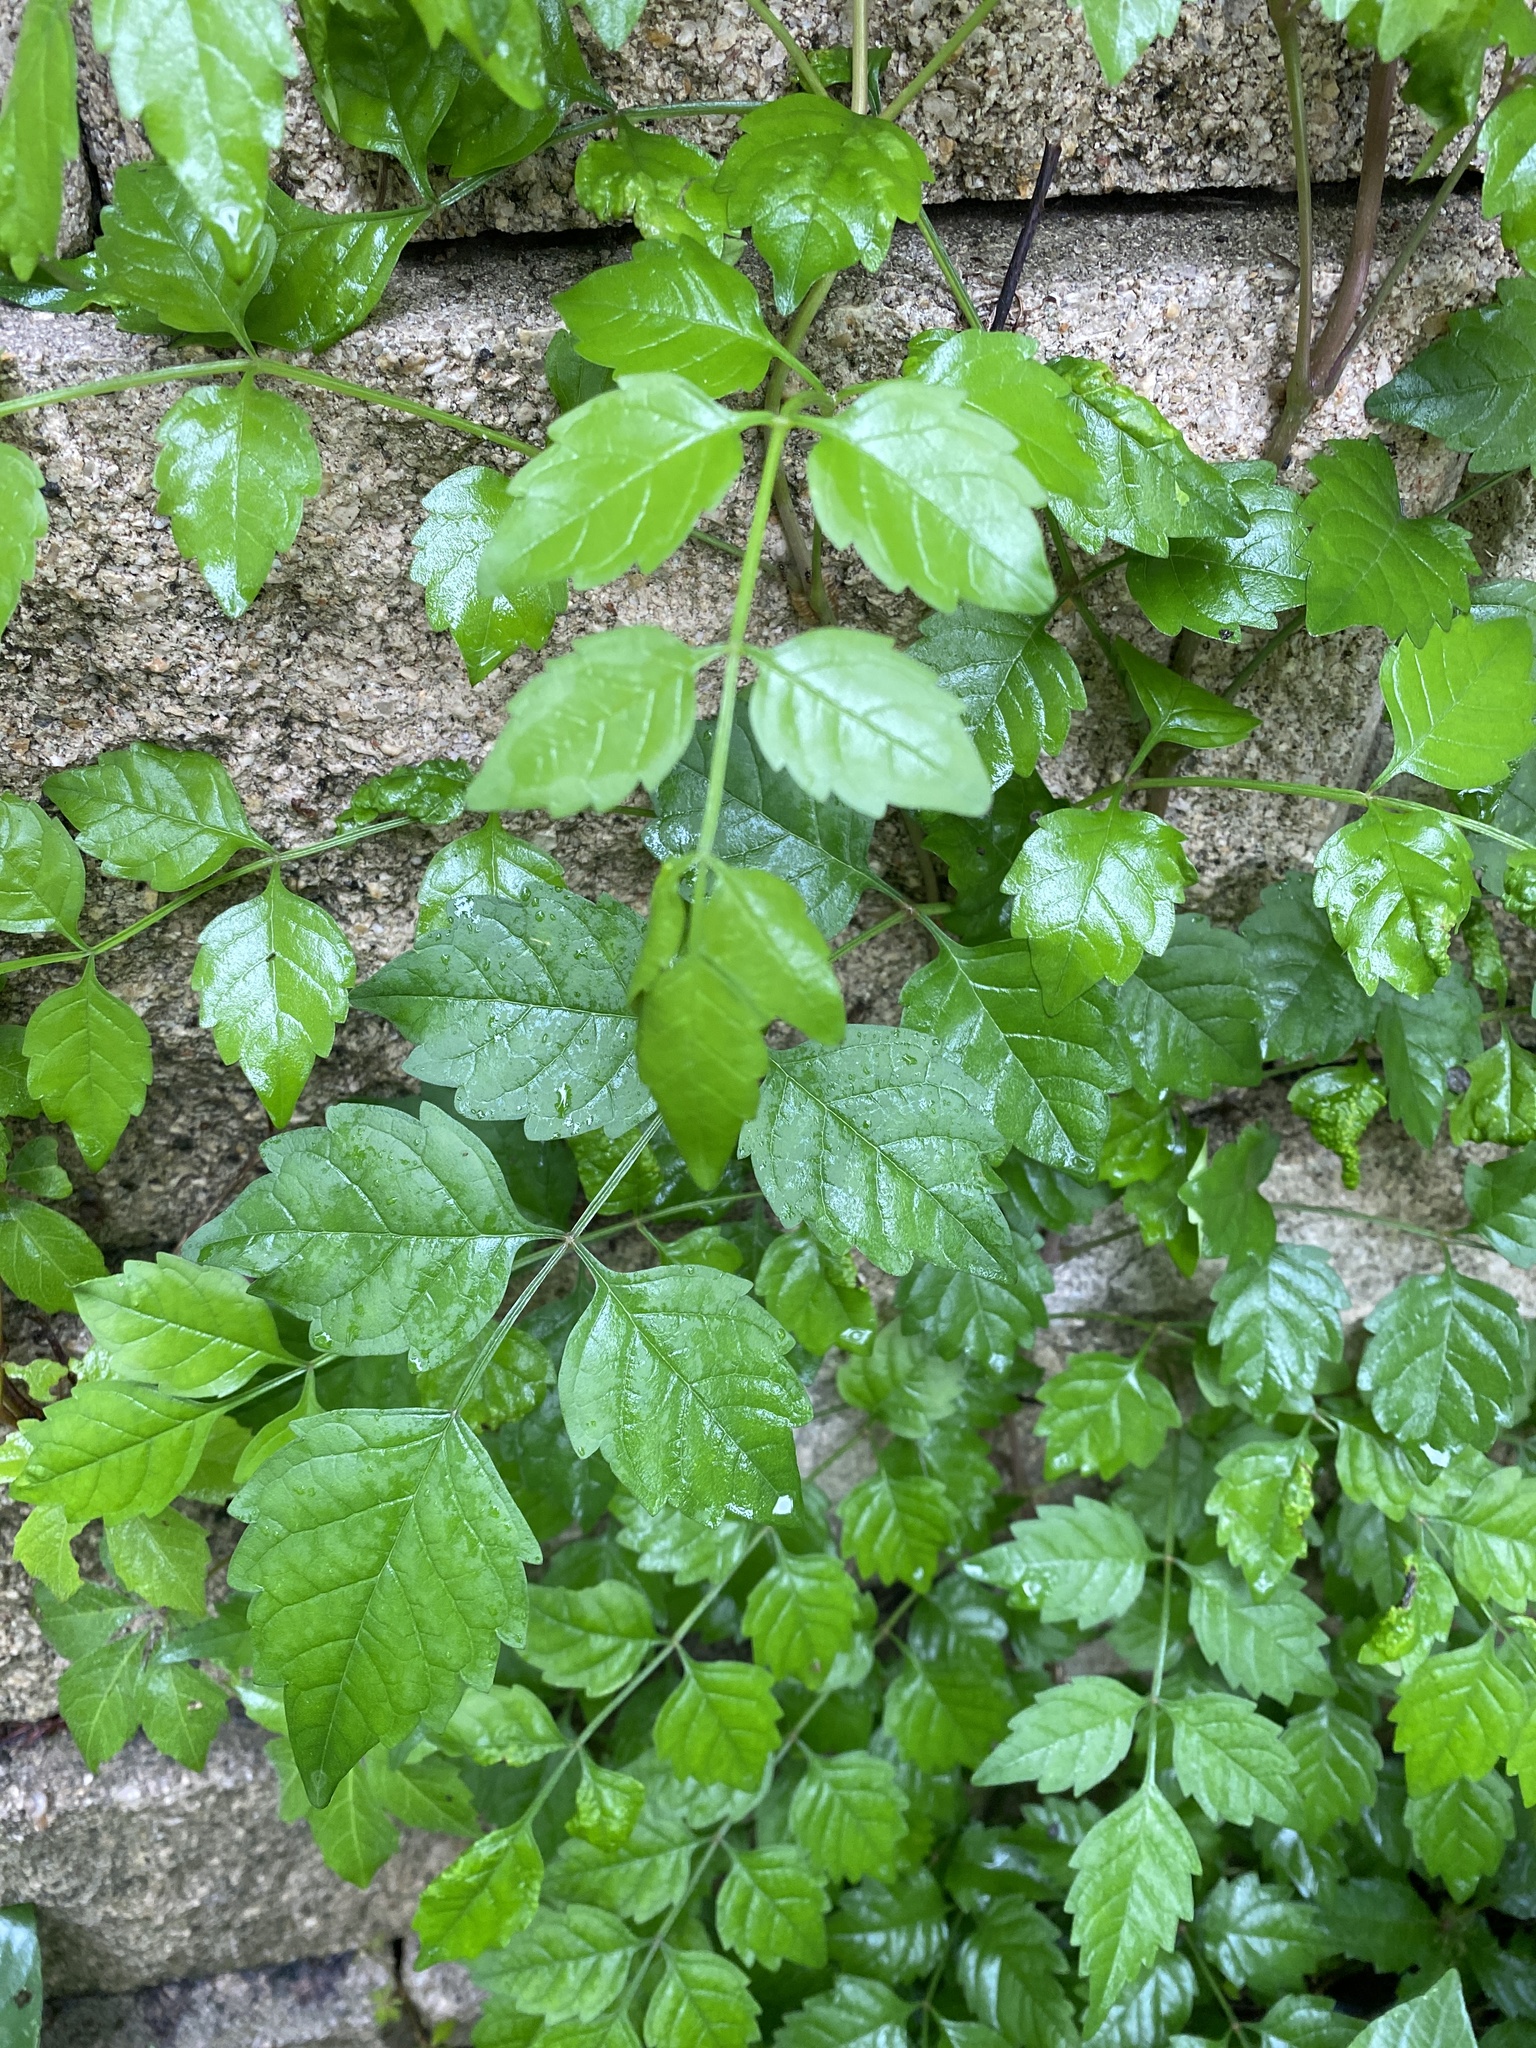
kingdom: Plantae
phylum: Tracheophyta
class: Magnoliopsida
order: Lamiales
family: Bignoniaceae
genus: Campsis
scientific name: Campsis radicans
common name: Trumpet-creeper
